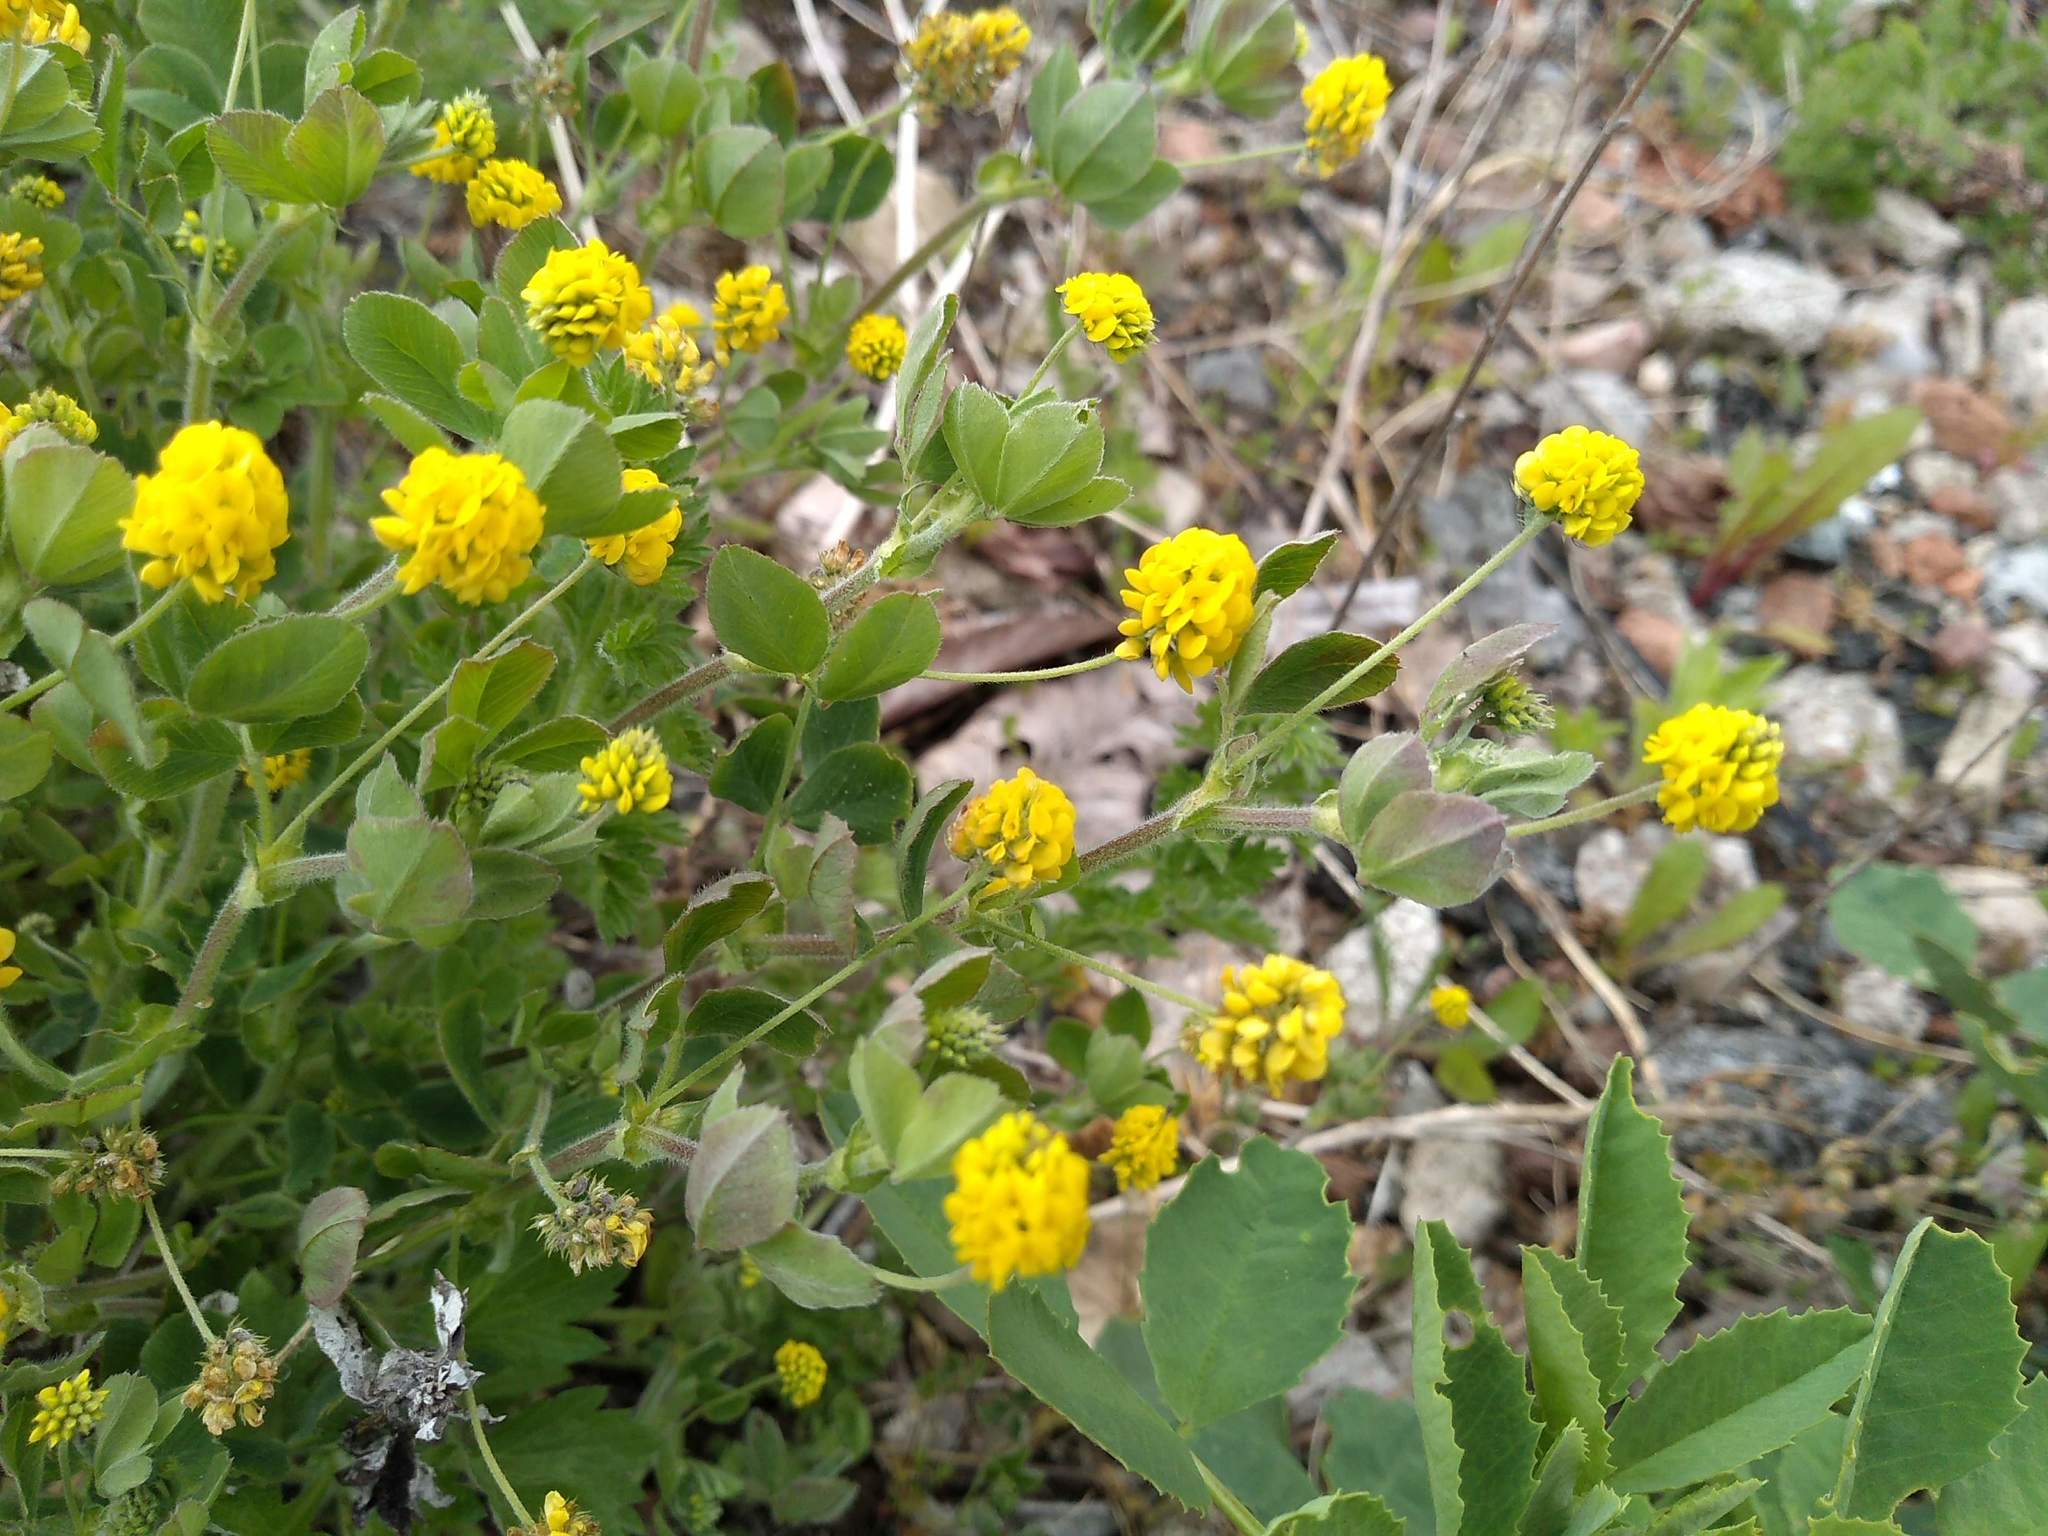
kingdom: Plantae
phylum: Tracheophyta
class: Magnoliopsida
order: Fabales
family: Fabaceae
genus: Medicago
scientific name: Medicago lupulina
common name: Black medick
